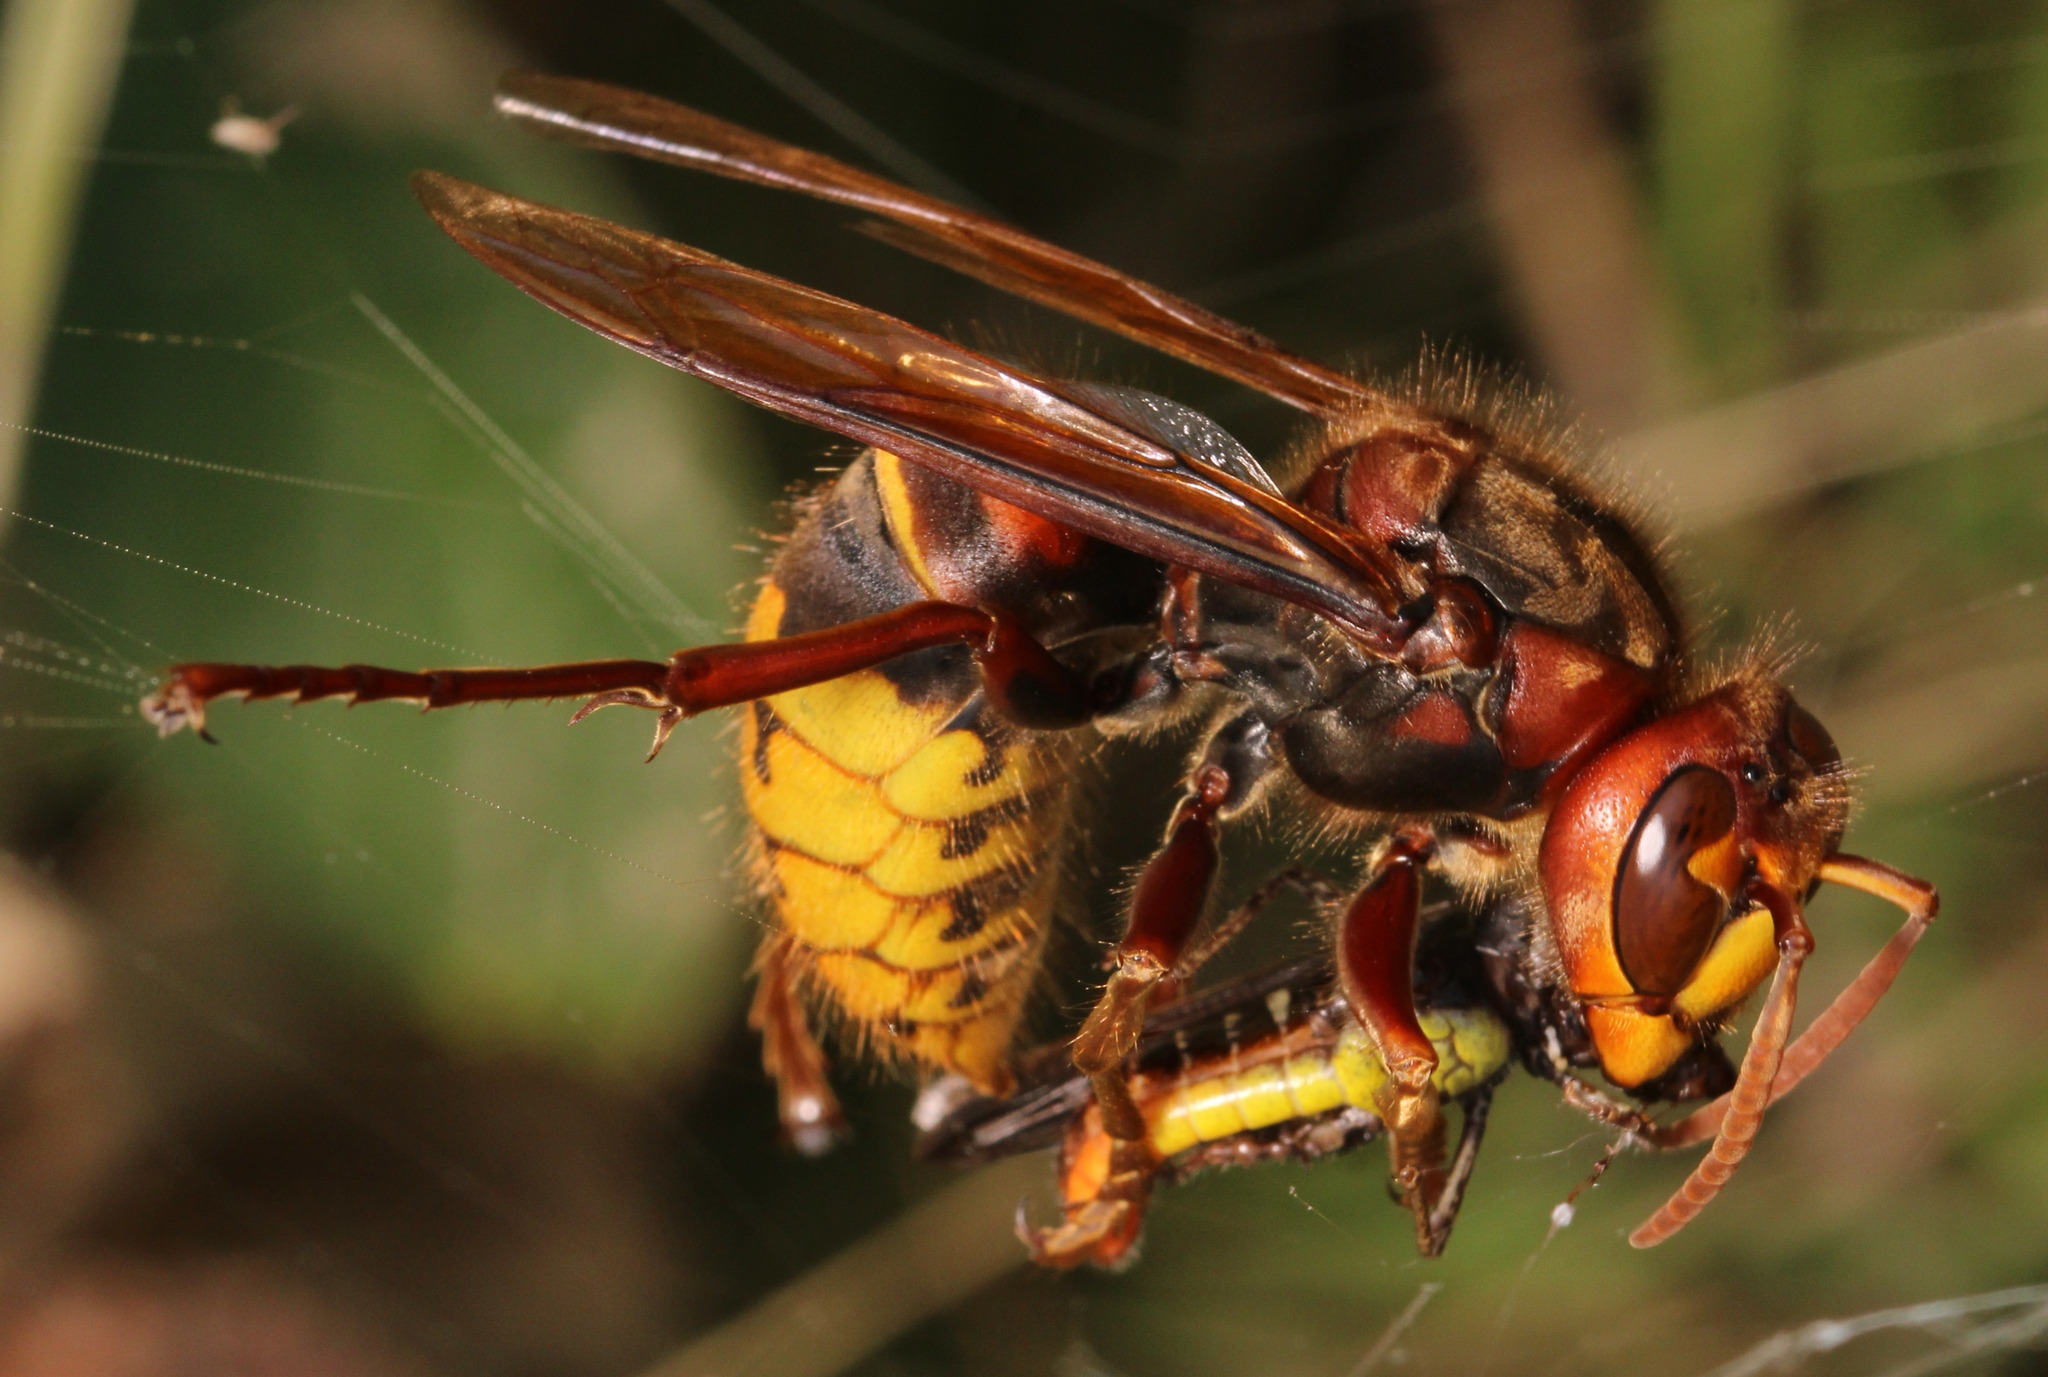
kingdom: Animalia
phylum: Arthropoda
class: Insecta
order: Hymenoptera
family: Vespidae
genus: Vespa
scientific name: Vespa crabro
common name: Hornet
